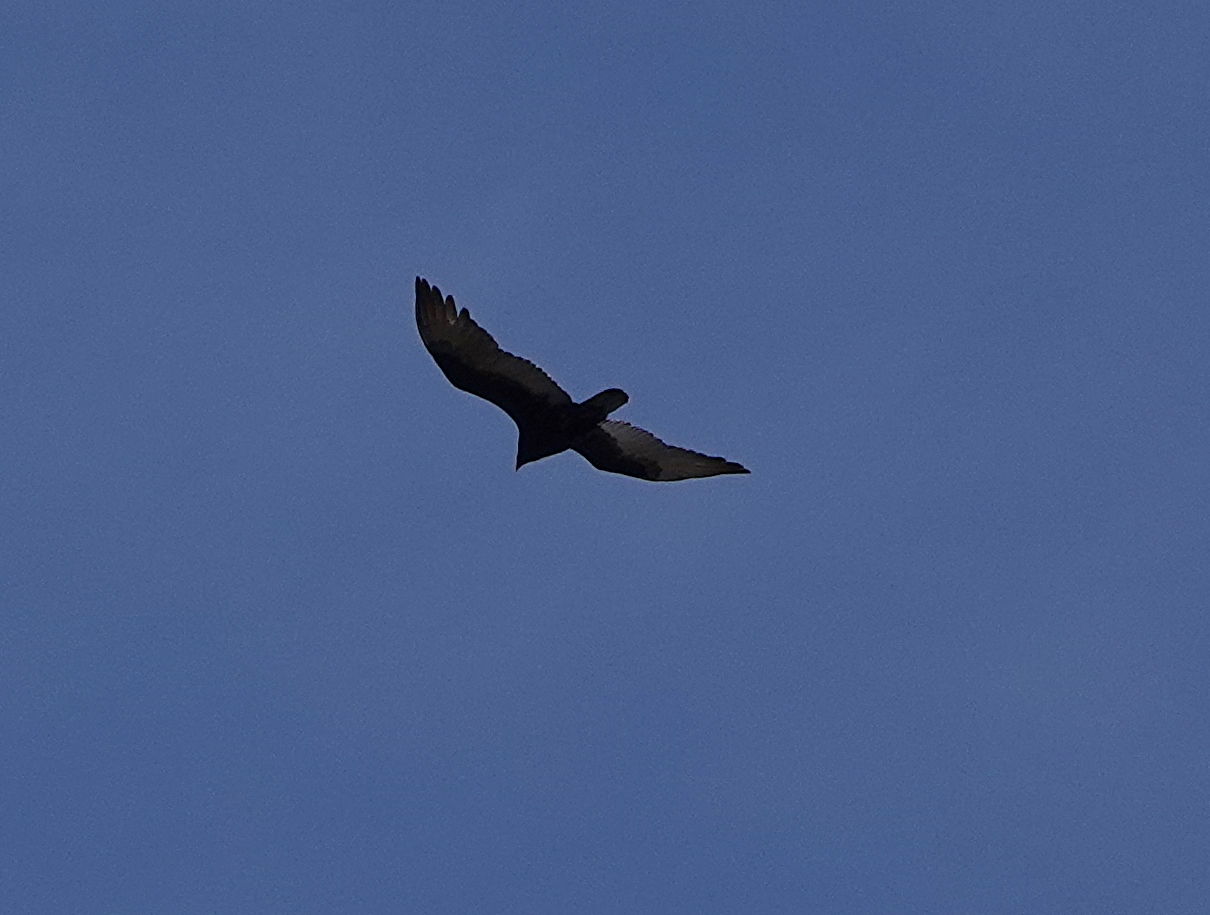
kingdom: Animalia
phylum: Chordata
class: Aves
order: Accipitriformes
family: Cathartidae
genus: Cathartes
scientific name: Cathartes aura
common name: Turkey vulture
